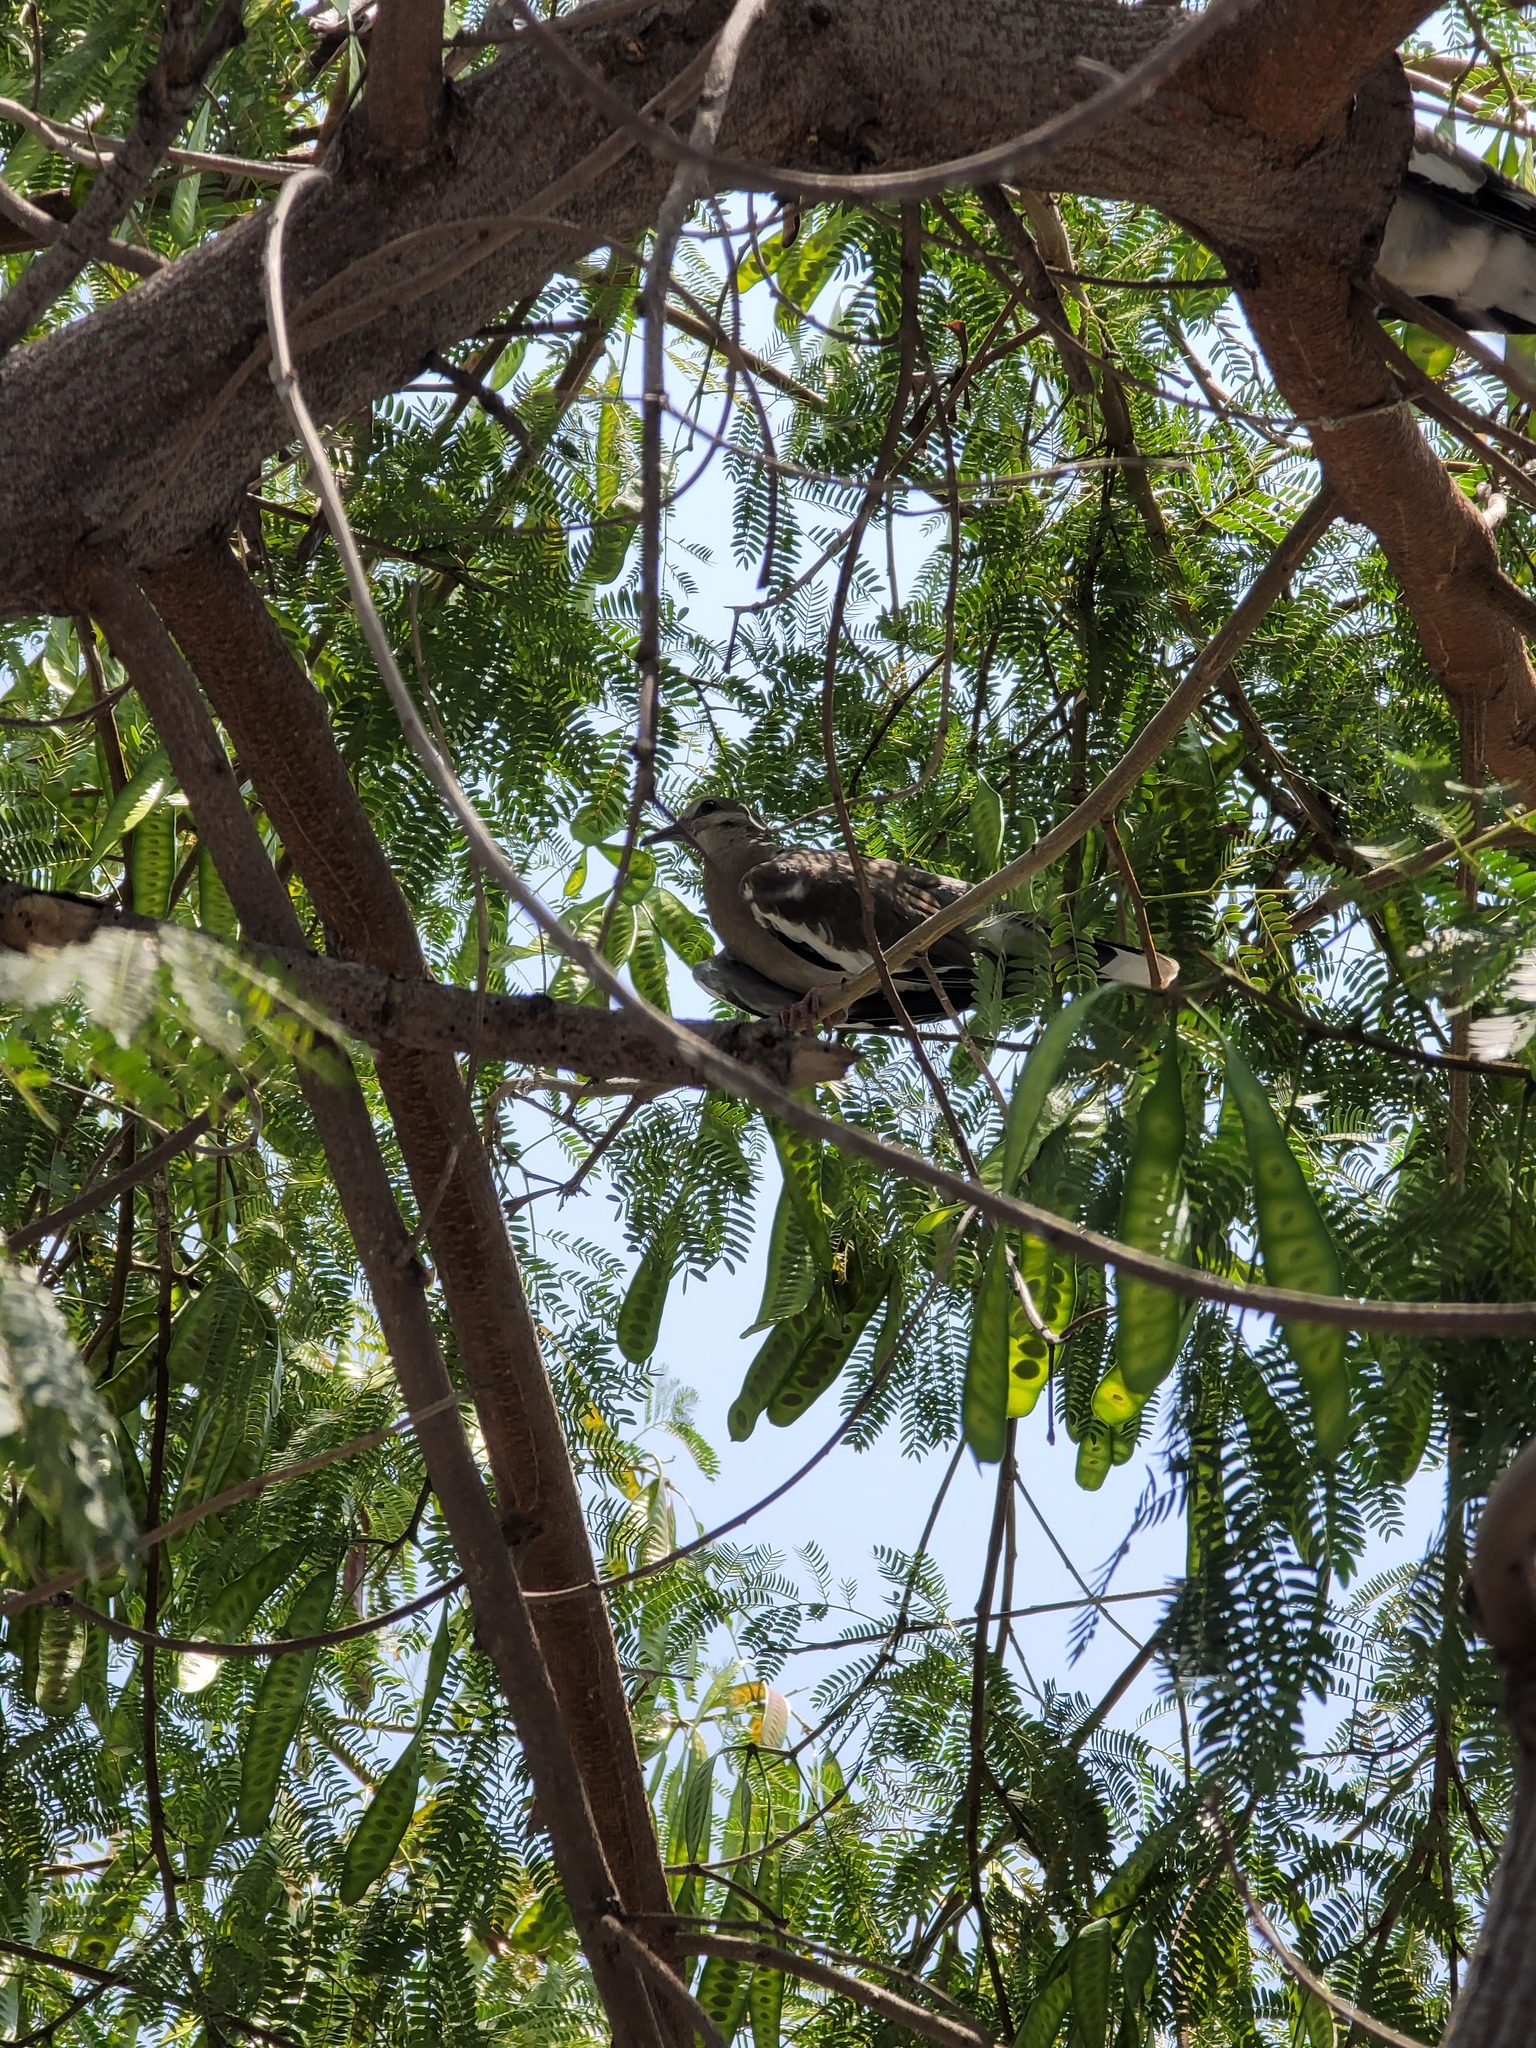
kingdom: Animalia
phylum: Chordata
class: Aves
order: Columbiformes
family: Columbidae
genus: Zenaida
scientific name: Zenaida asiatica
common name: White-winged dove
